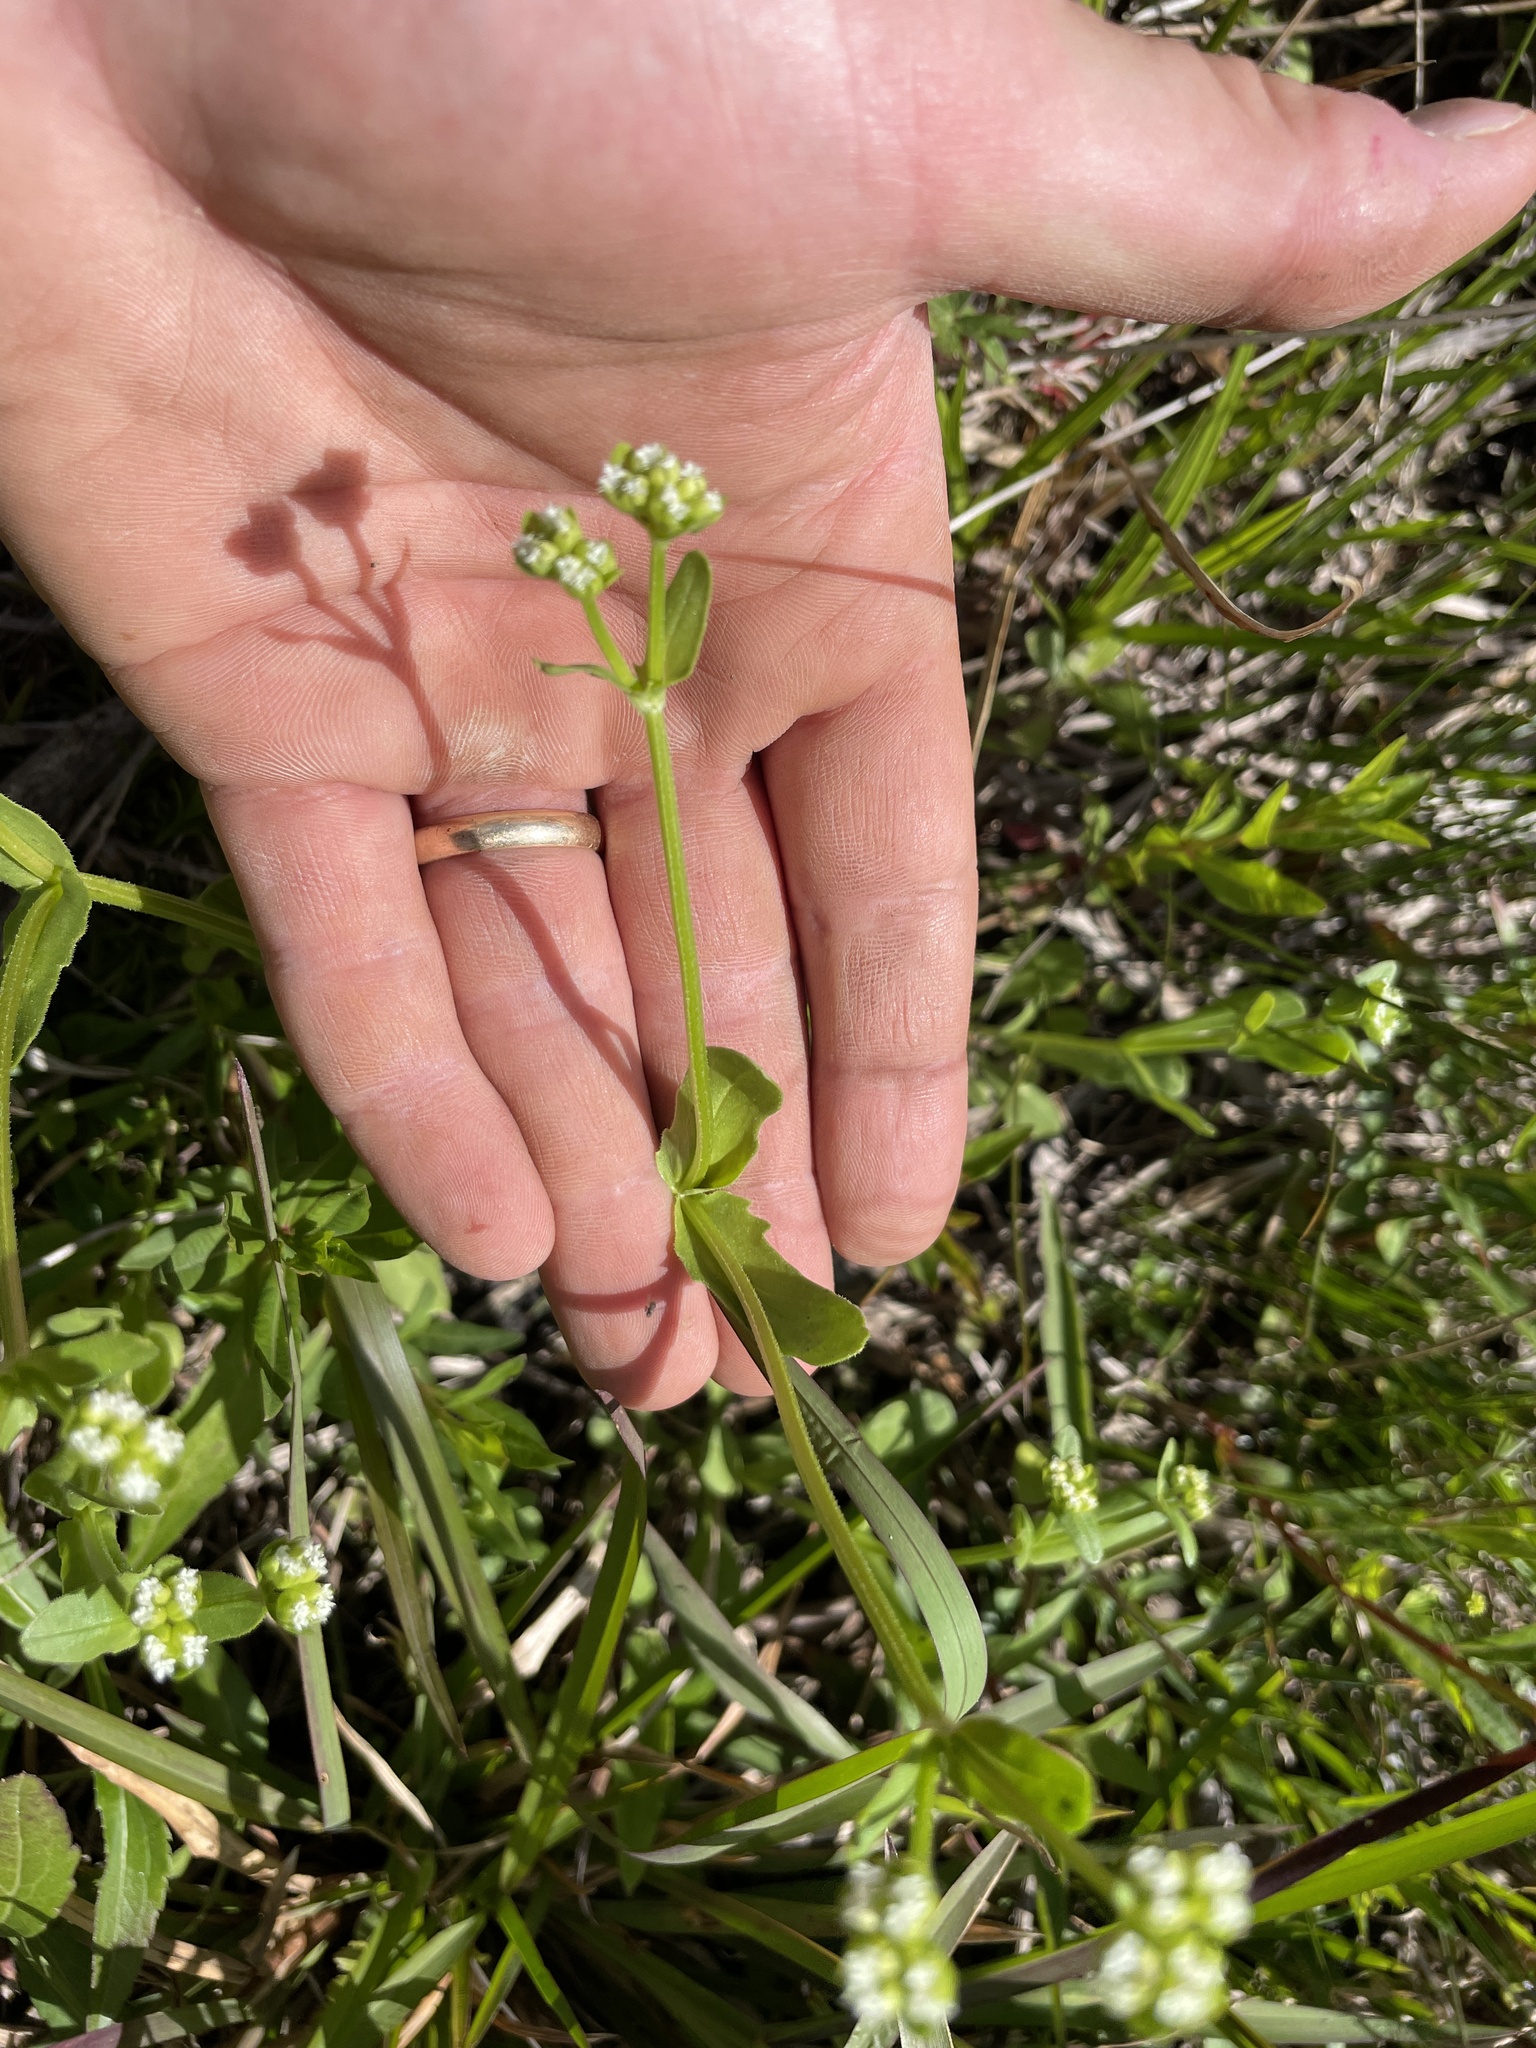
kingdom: Plantae
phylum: Tracheophyta
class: Magnoliopsida
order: Dipsacales
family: Caprifoliaceae
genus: Valerianella
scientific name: Valerianella radiata
